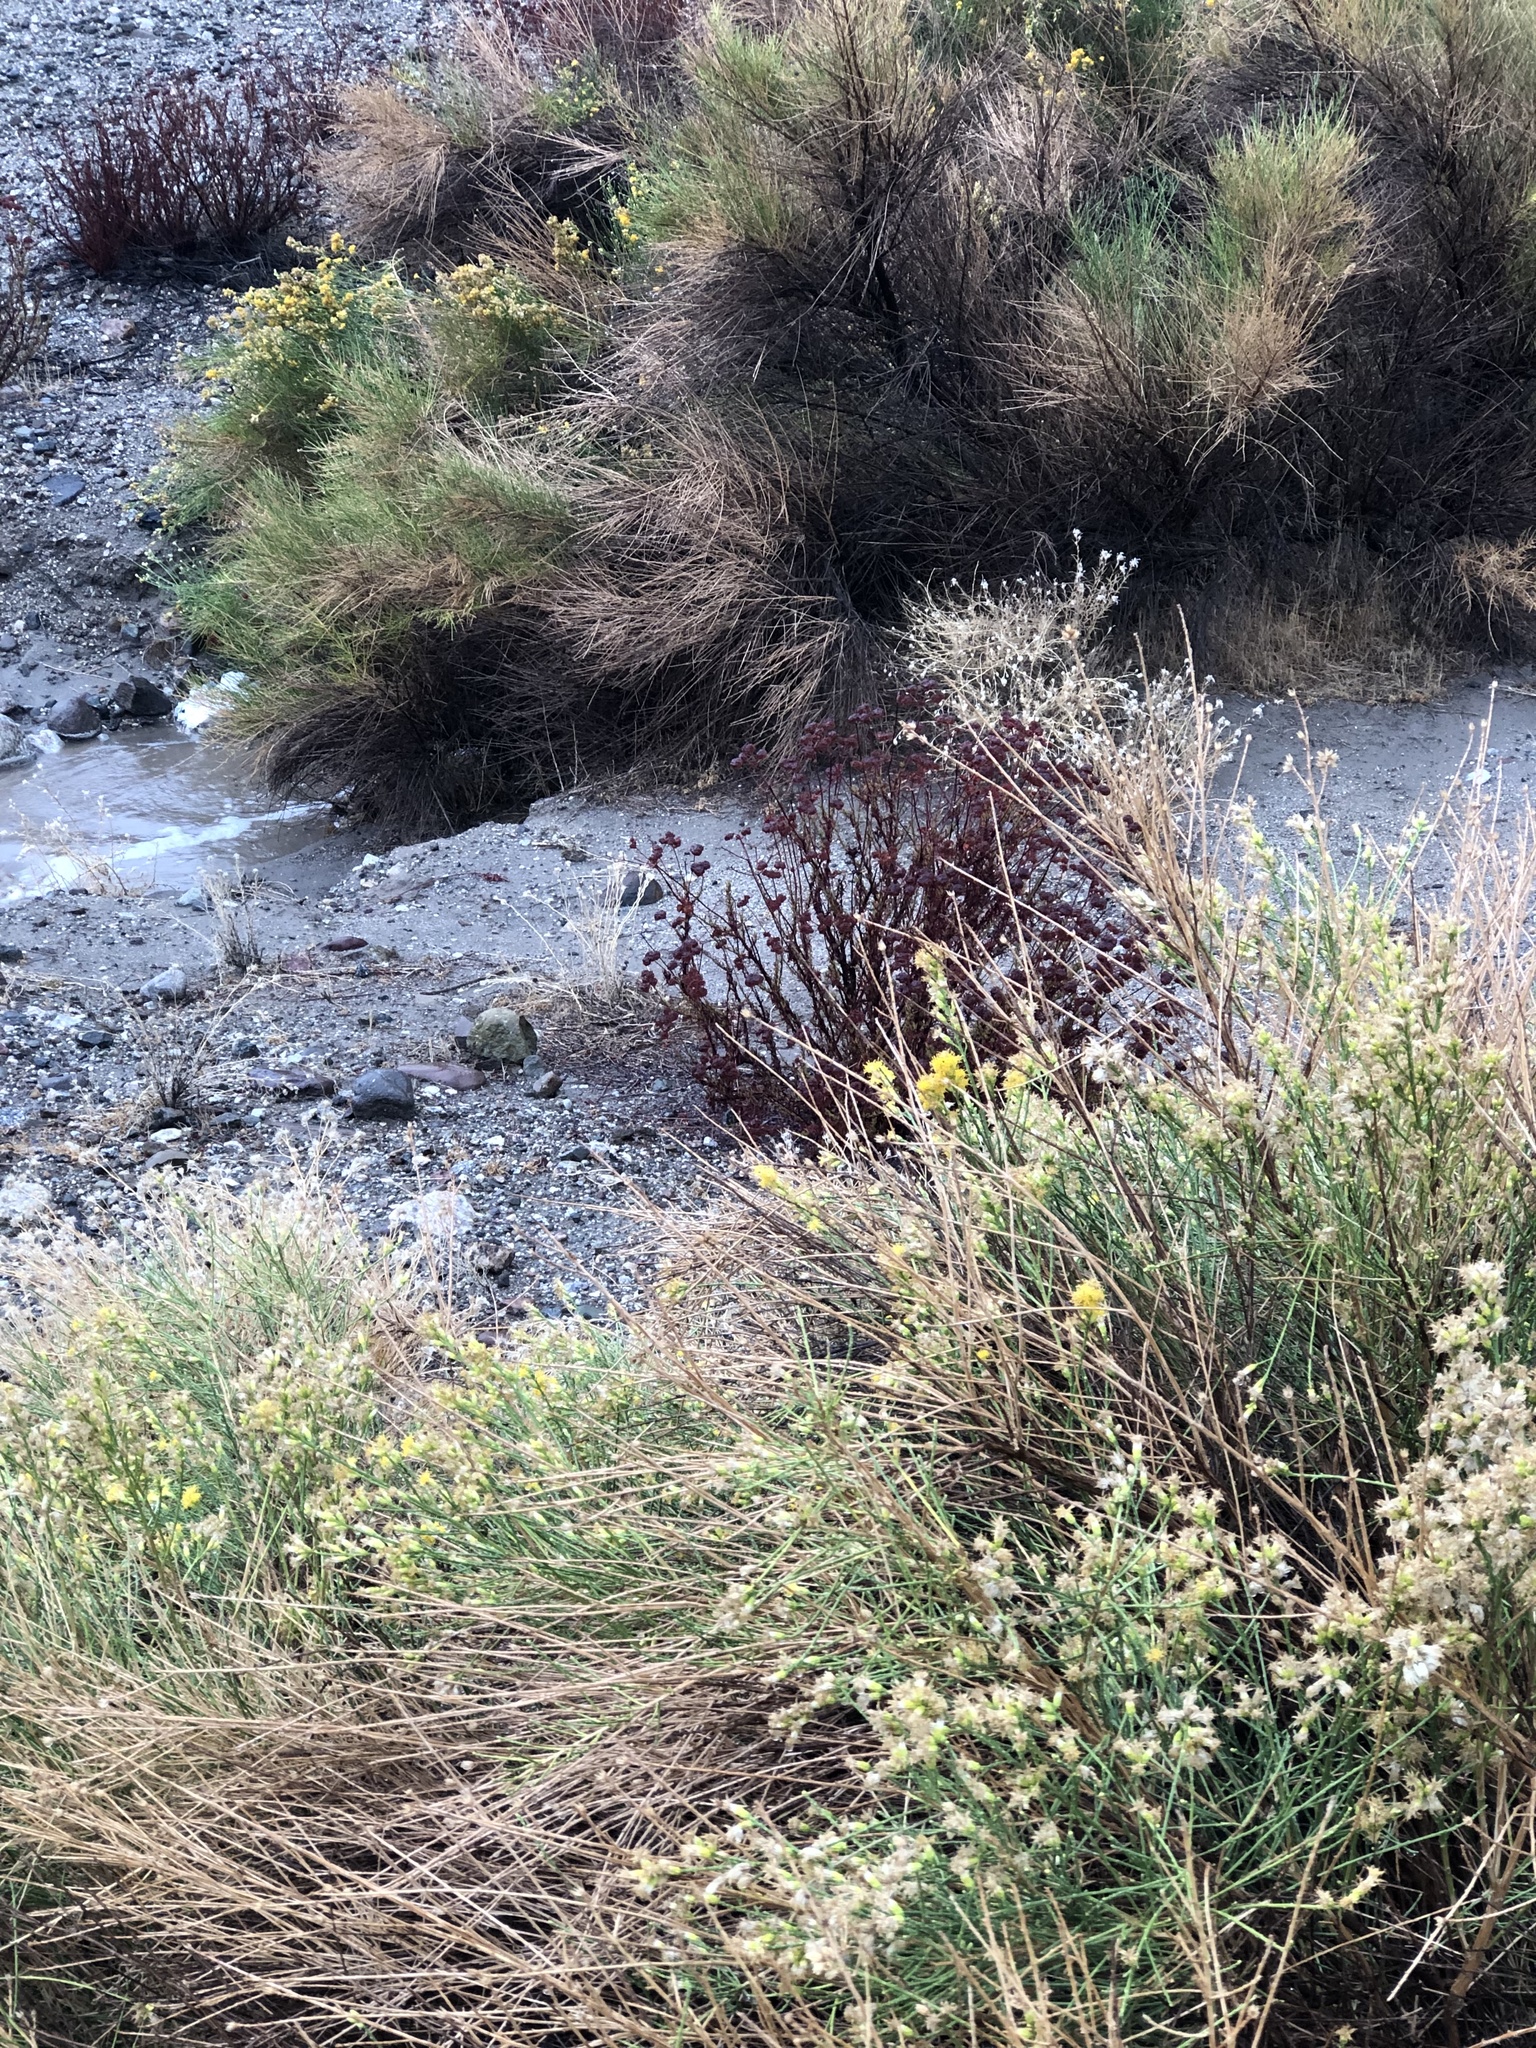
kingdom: Plantae
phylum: Tracheophyta
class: Magnoliopsida
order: Asterales
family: Asteraceae
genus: Lepidospartum
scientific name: Lepidospartum squamatum
